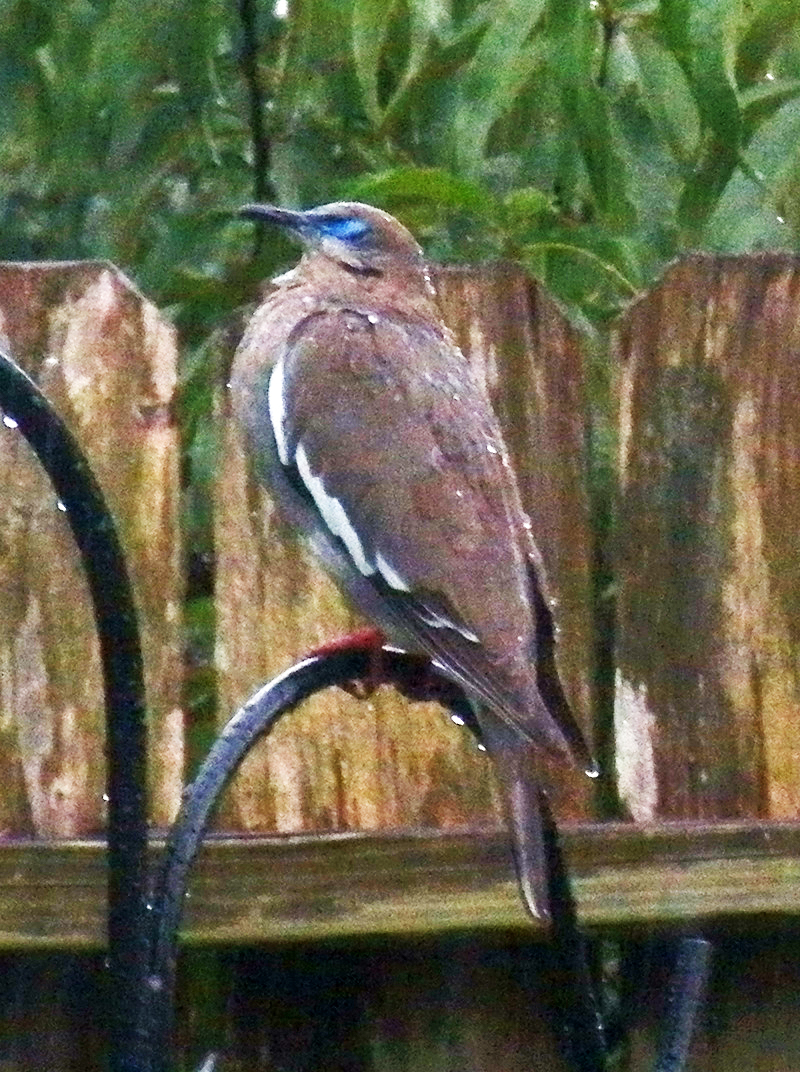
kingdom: Animalia
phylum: Chordata
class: Aves
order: Columbiformes
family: Columbidae
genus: Zenaida
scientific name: Zenaida asiatica
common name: White-winged dove
